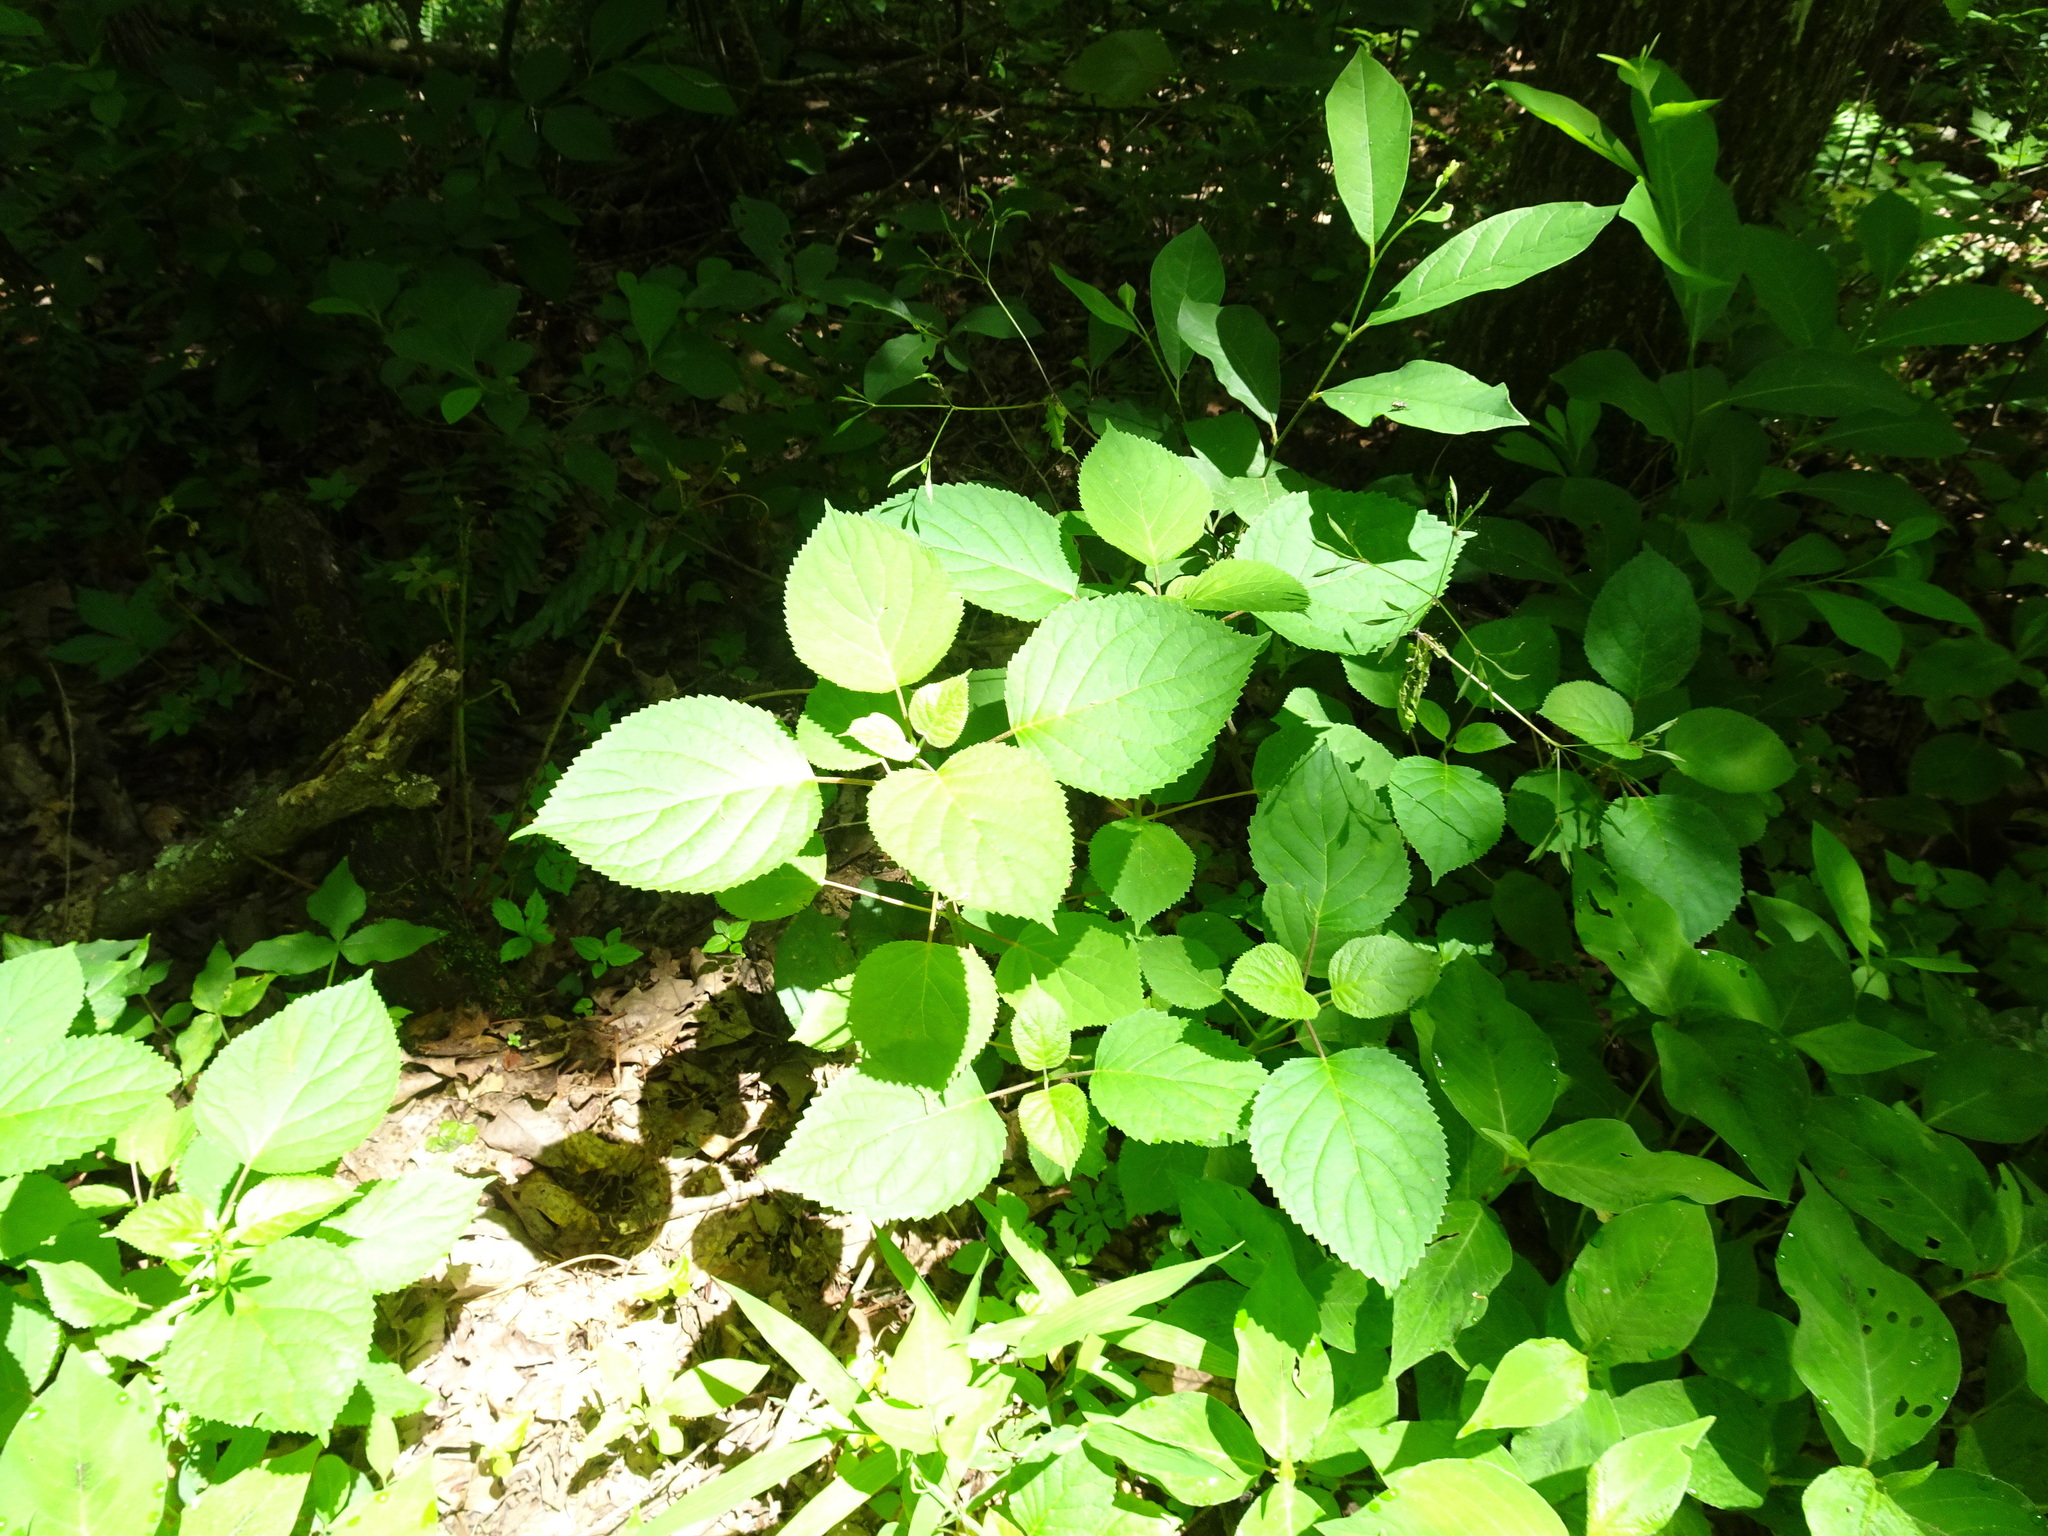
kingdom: Plantae
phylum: Tracheophyta
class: Magnoliopsida
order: Cornales
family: Hydrangeaceae
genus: Hydrangea
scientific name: Hydrangea arborescens
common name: Sevenbark
